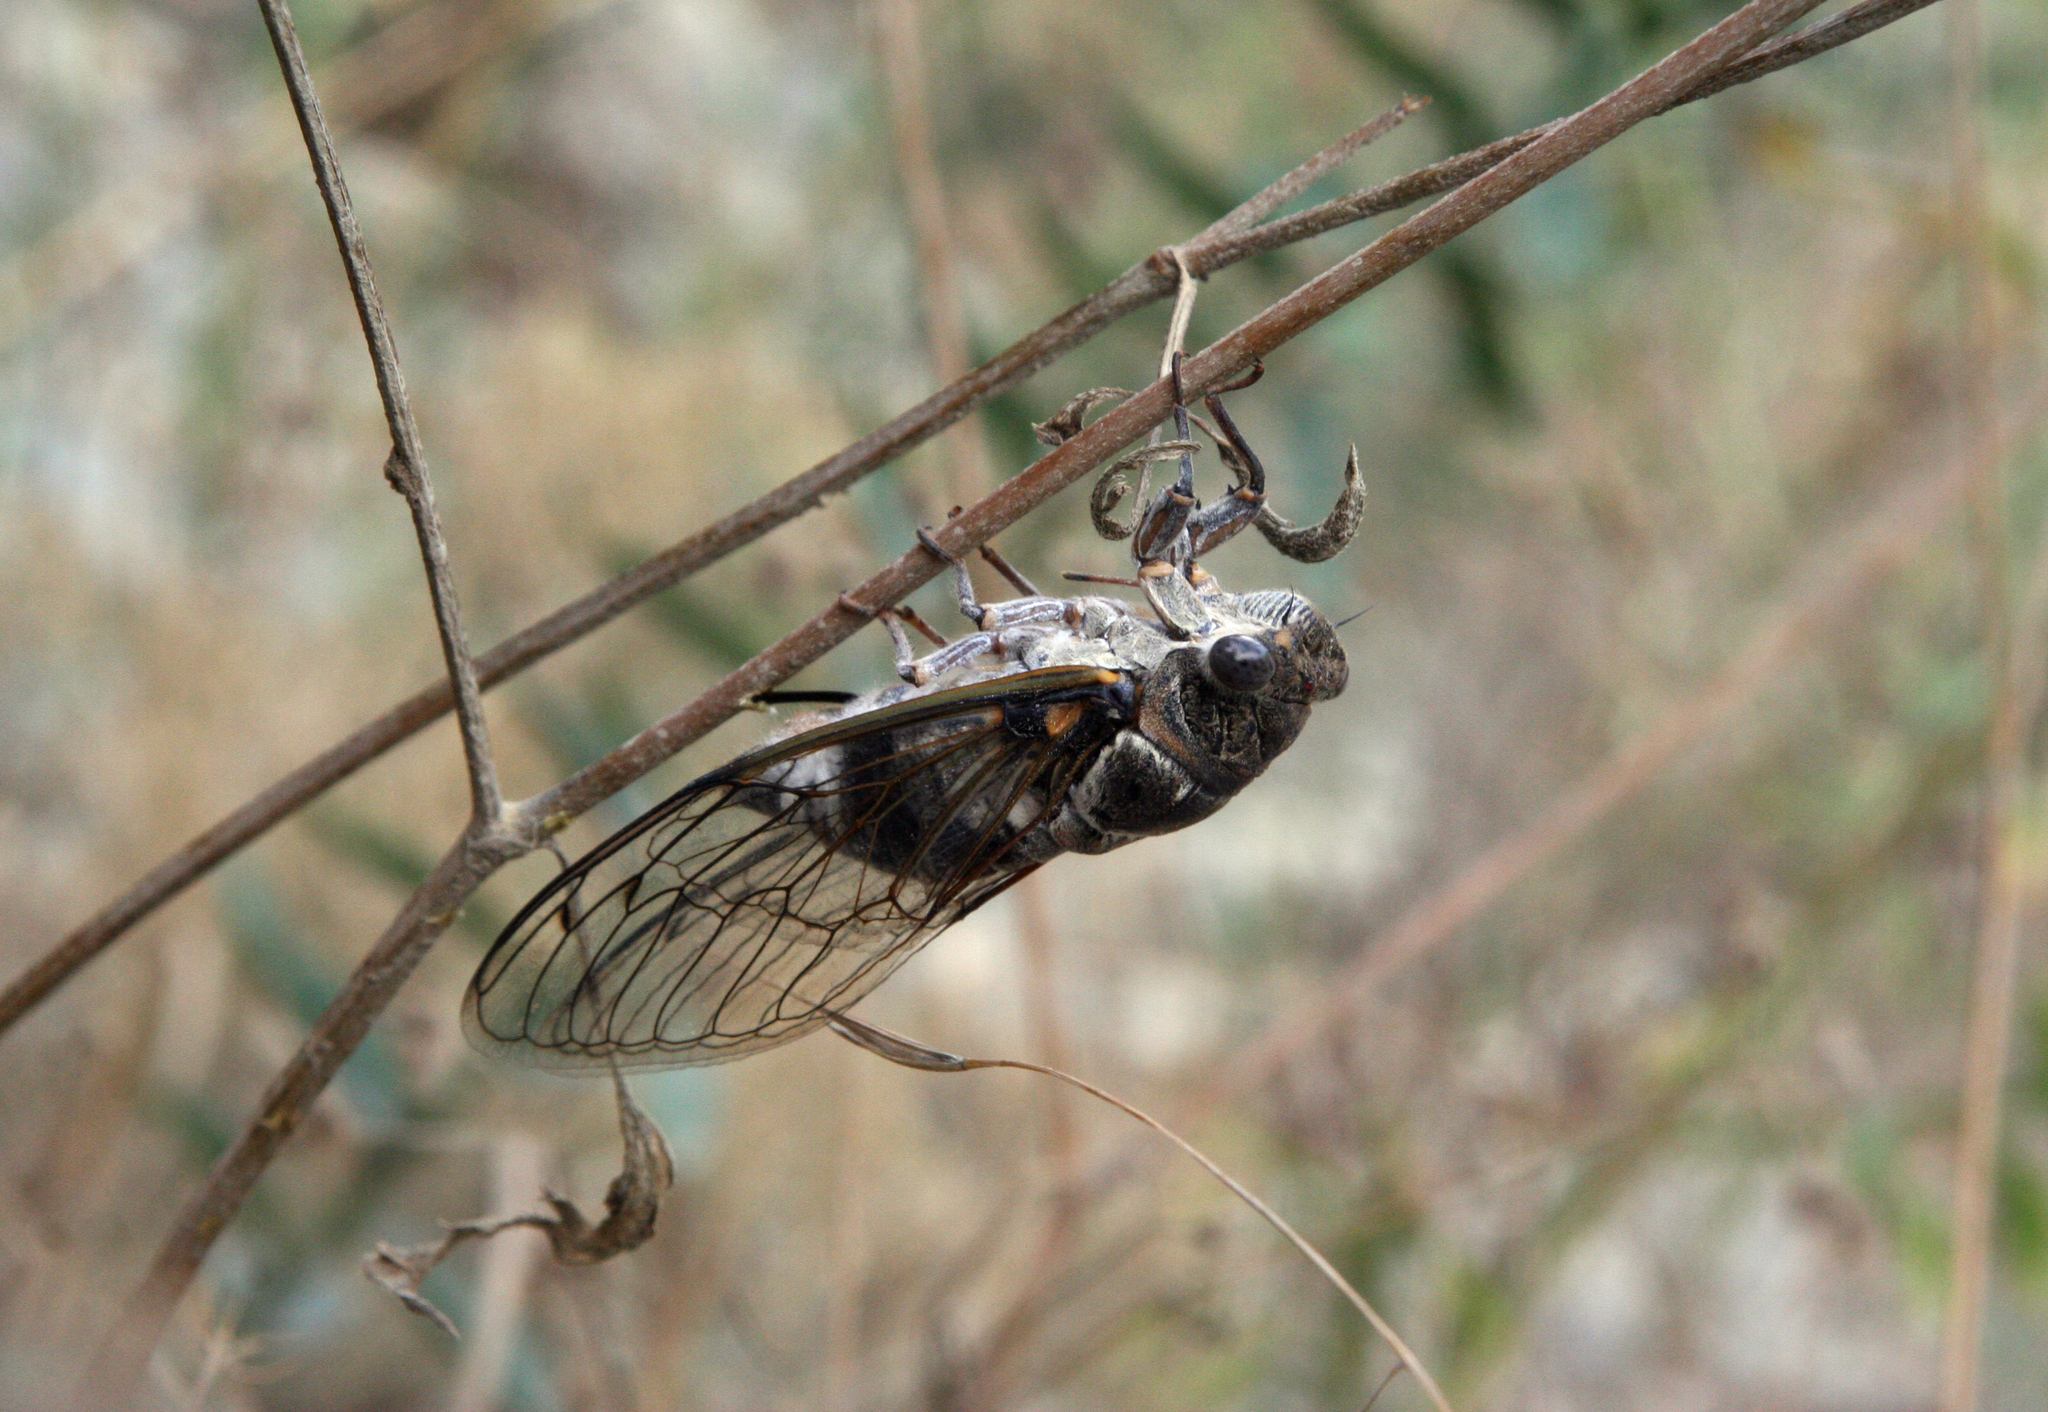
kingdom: Animalia
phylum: Arthropoda
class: Insecta
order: Hemiptera
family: Cicadidae
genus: Lyristes
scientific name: Lyristes plebejus
